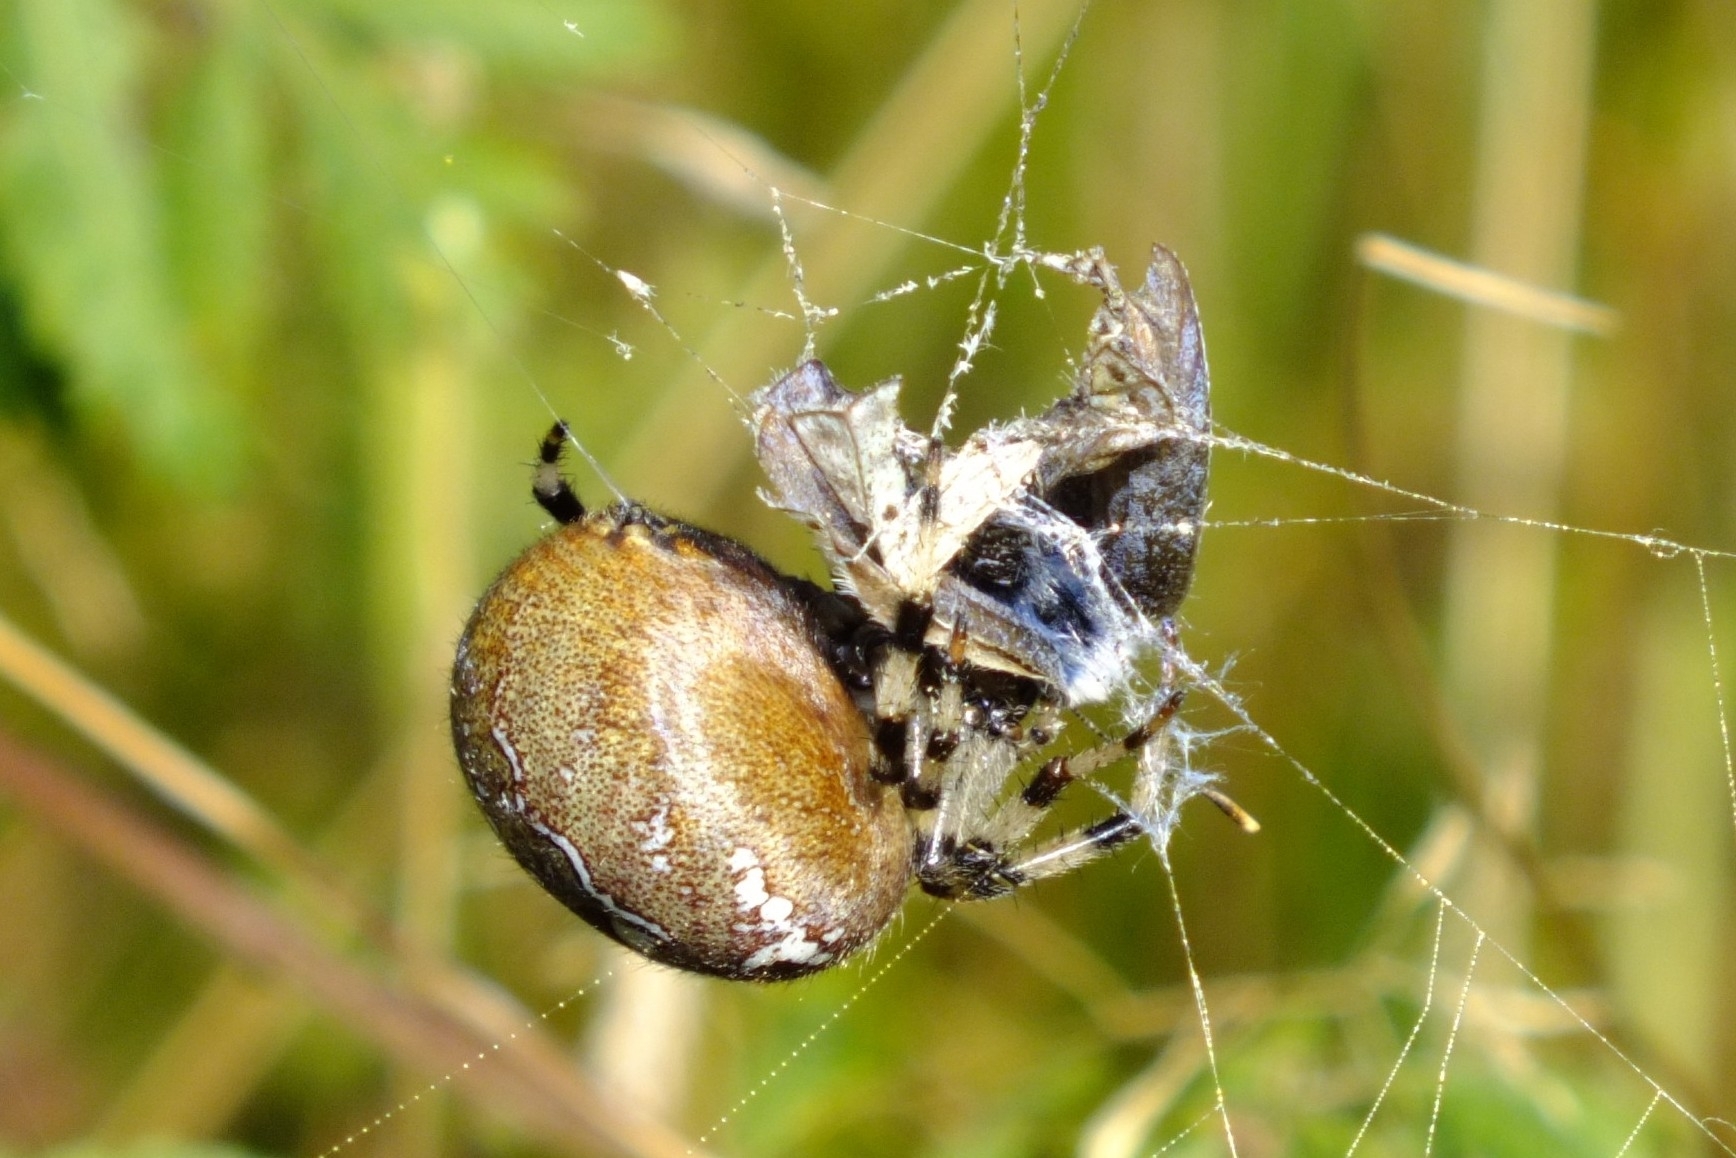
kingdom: Animalia
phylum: Arthropoda
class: Arachnida
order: Araneae
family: Araneidae
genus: Araneus
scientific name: Araneus quadratus
